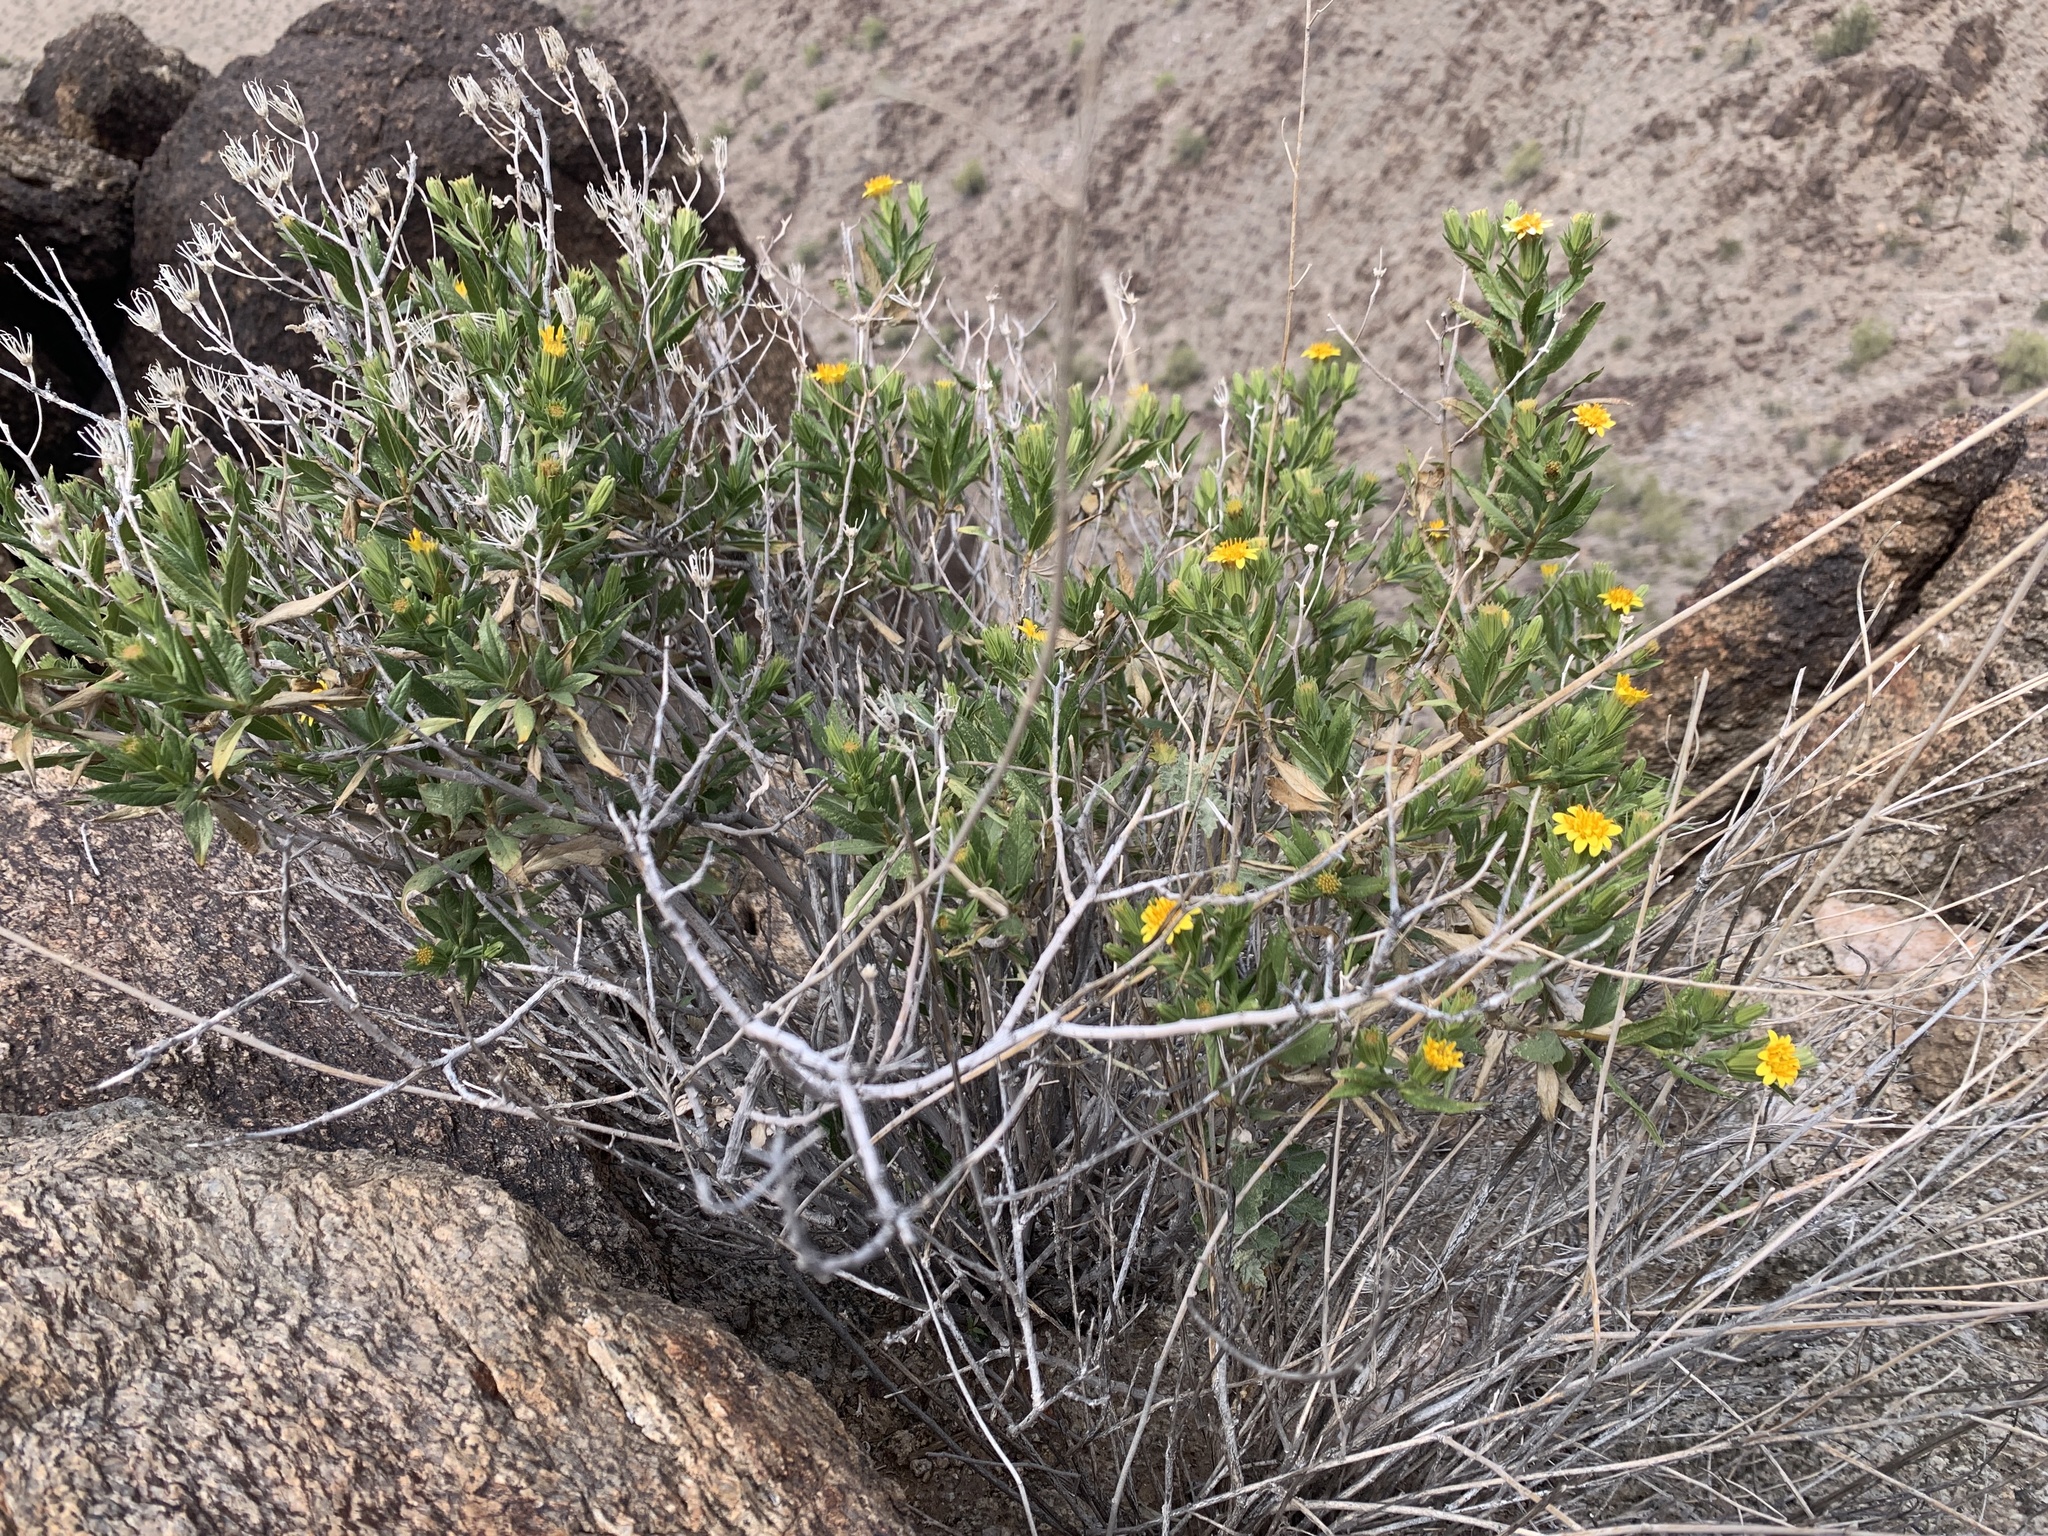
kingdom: Plantae
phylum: Tracheophyta
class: Magnoliopsida
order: Asterales
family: Asteraceae
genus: Trixis
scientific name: Trixis californica
